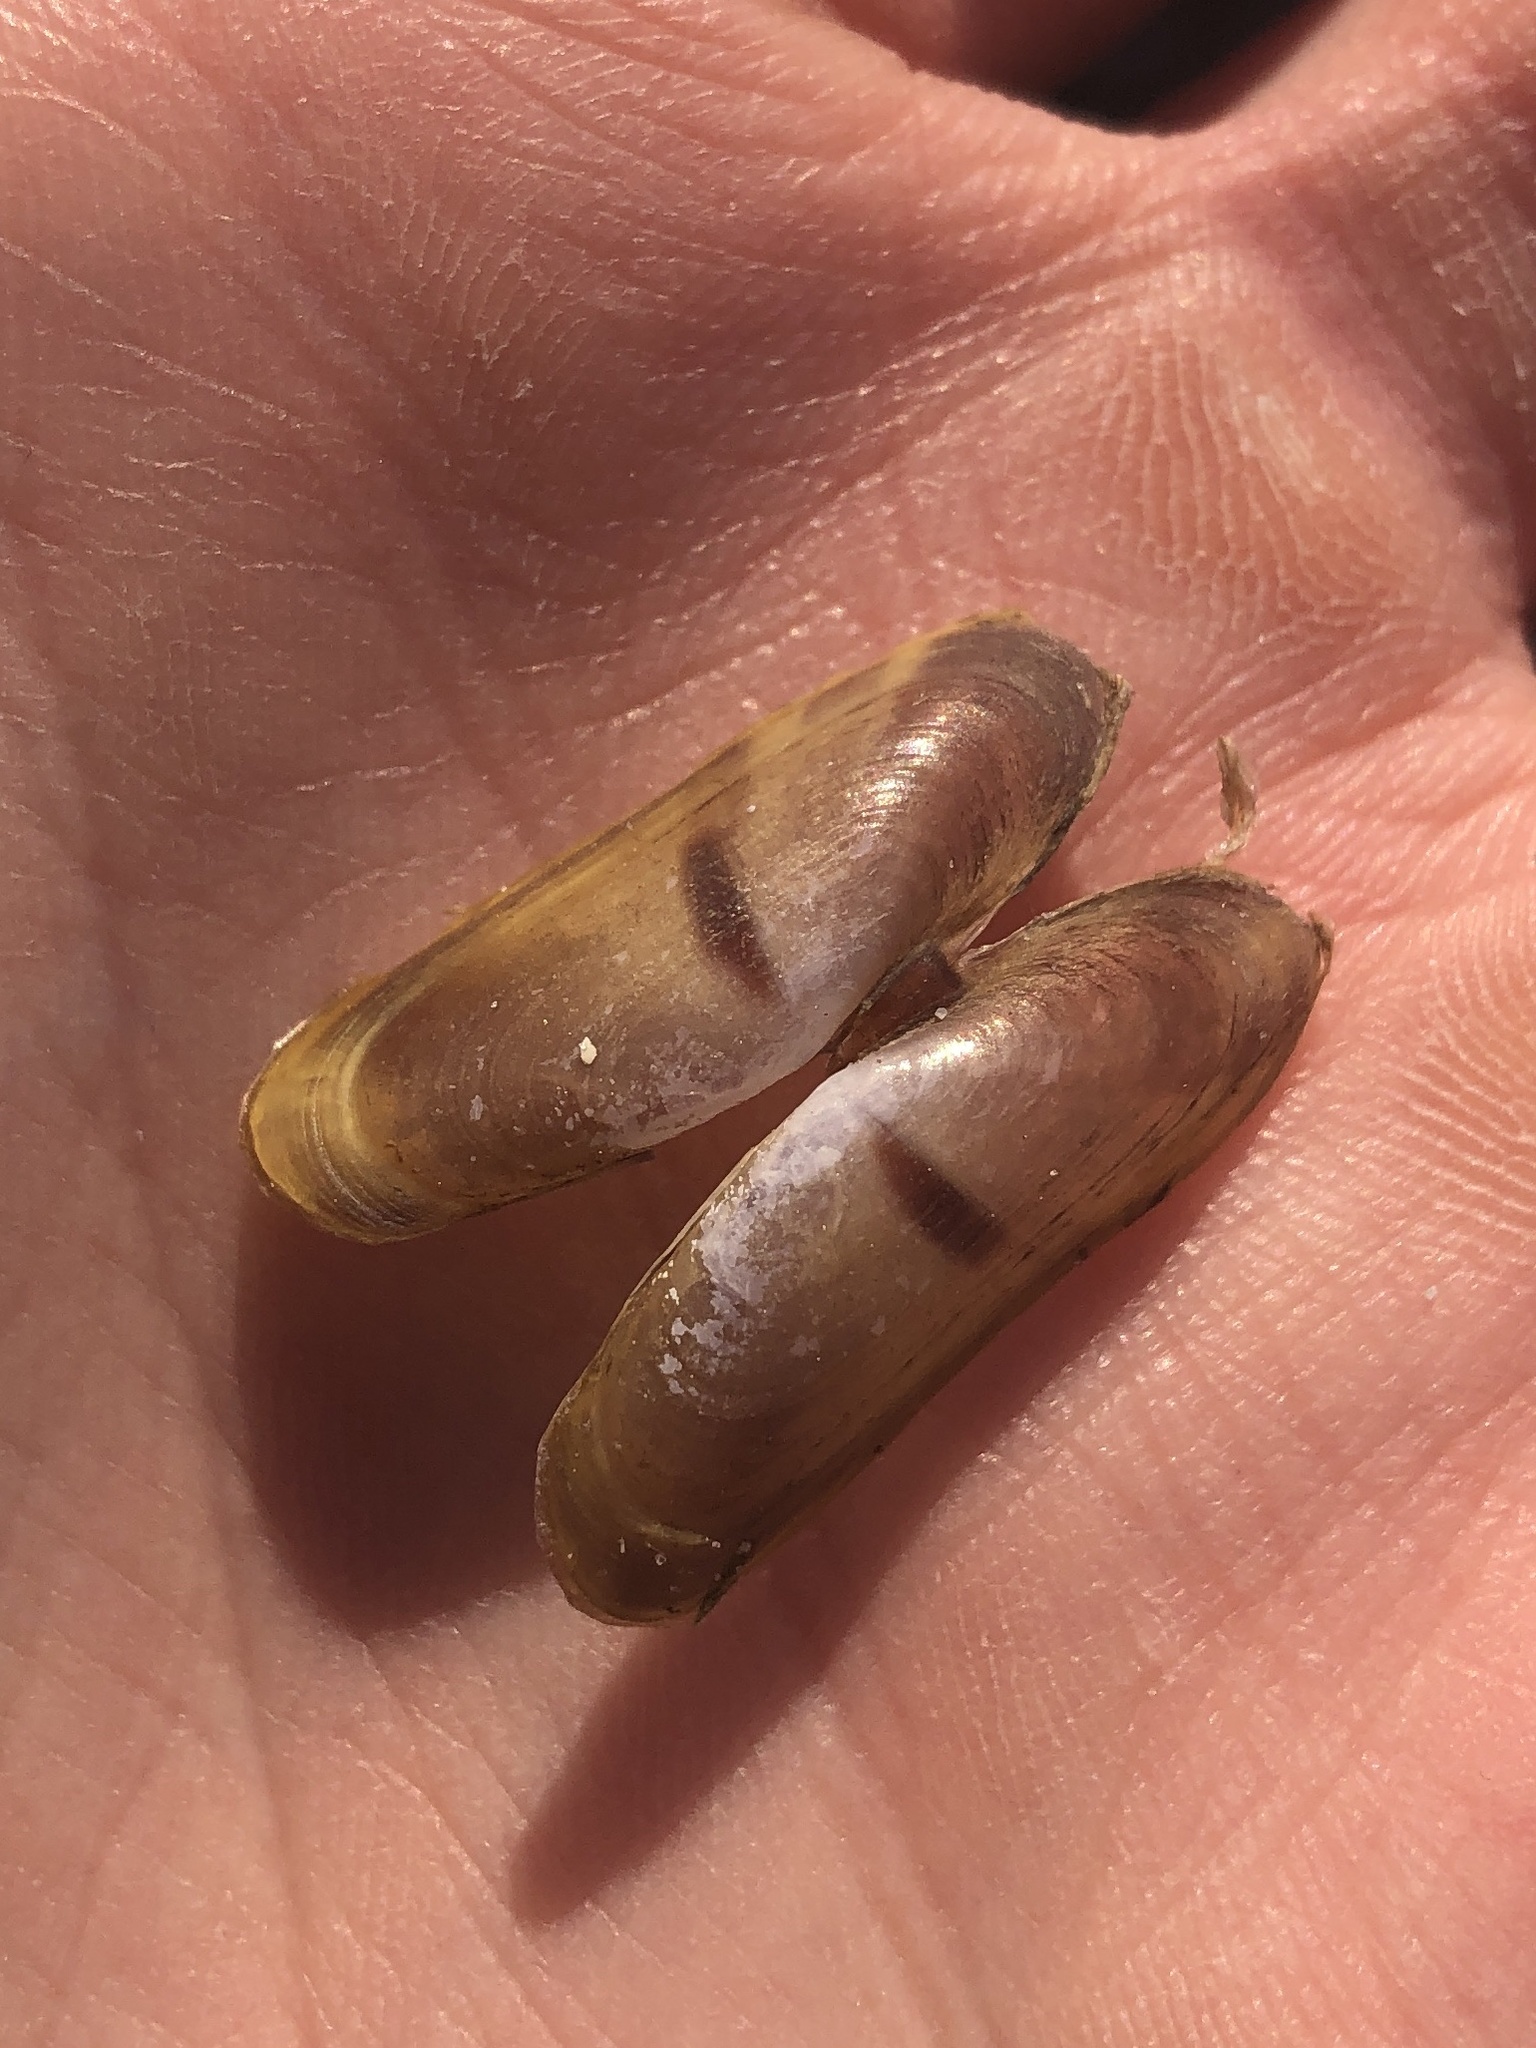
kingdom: Animalia
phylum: Mollusca
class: Bivalvia
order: Cardiida
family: Solecurtidae
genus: Tagelus
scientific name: Tagelus divisus
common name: Purplish tagelus
